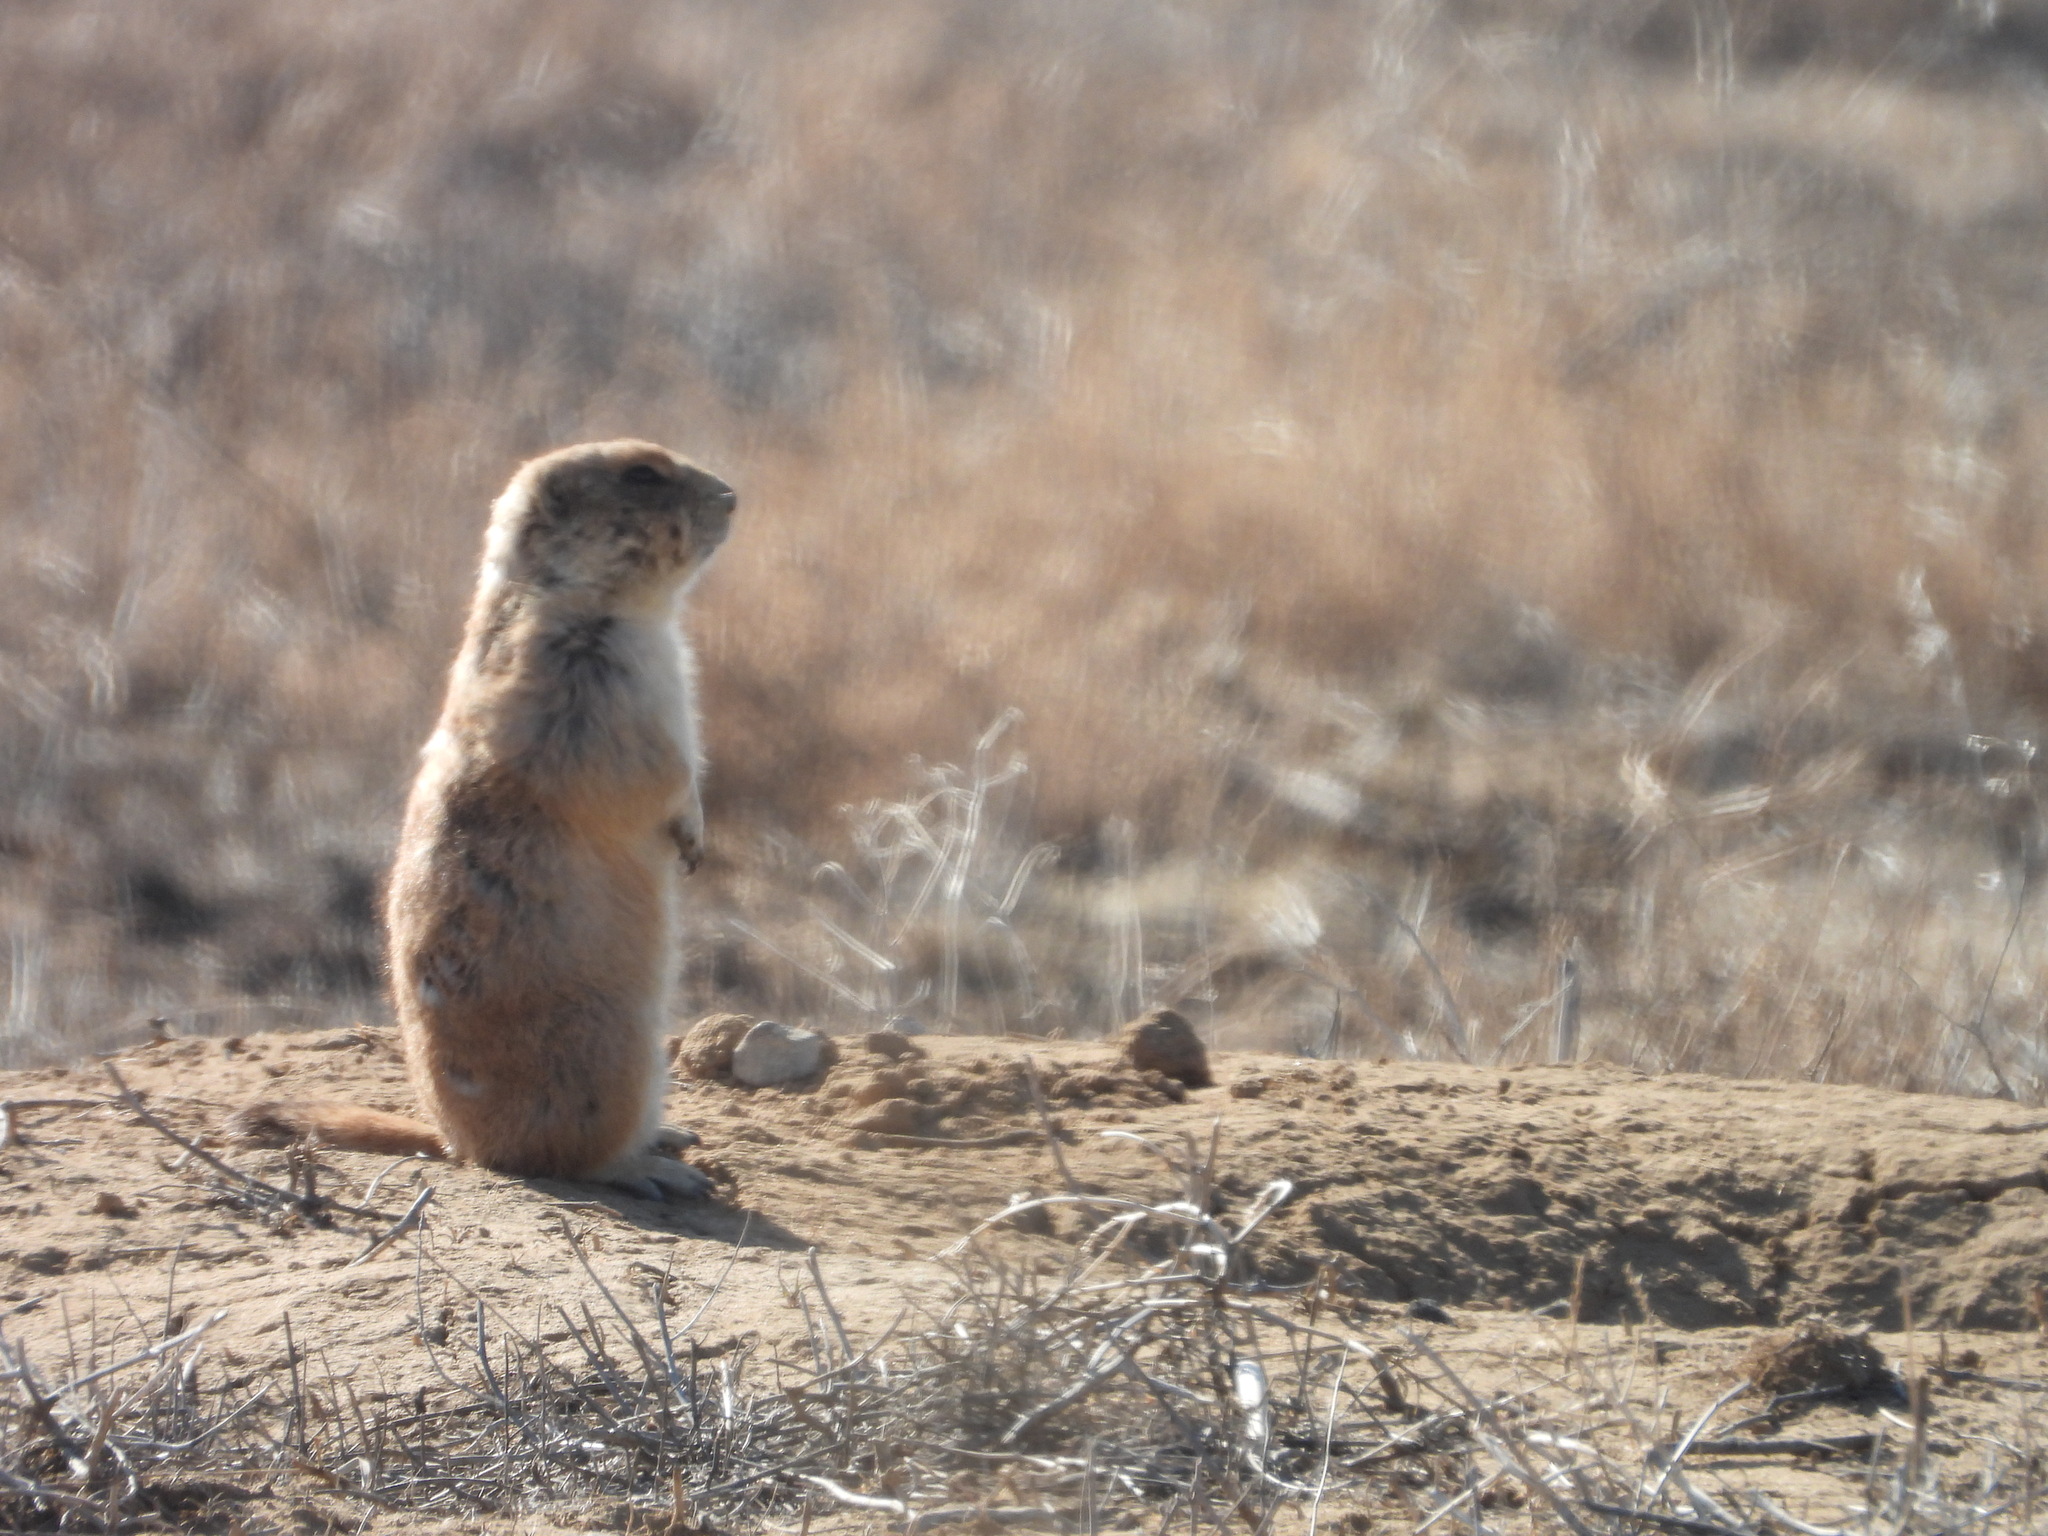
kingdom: Animalia
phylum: Chordata
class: Mammalia
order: Rodentia
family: Sciuridae
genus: Cynomys
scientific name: Cynomys ludovicianus
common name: Black-tailed prairie dog
